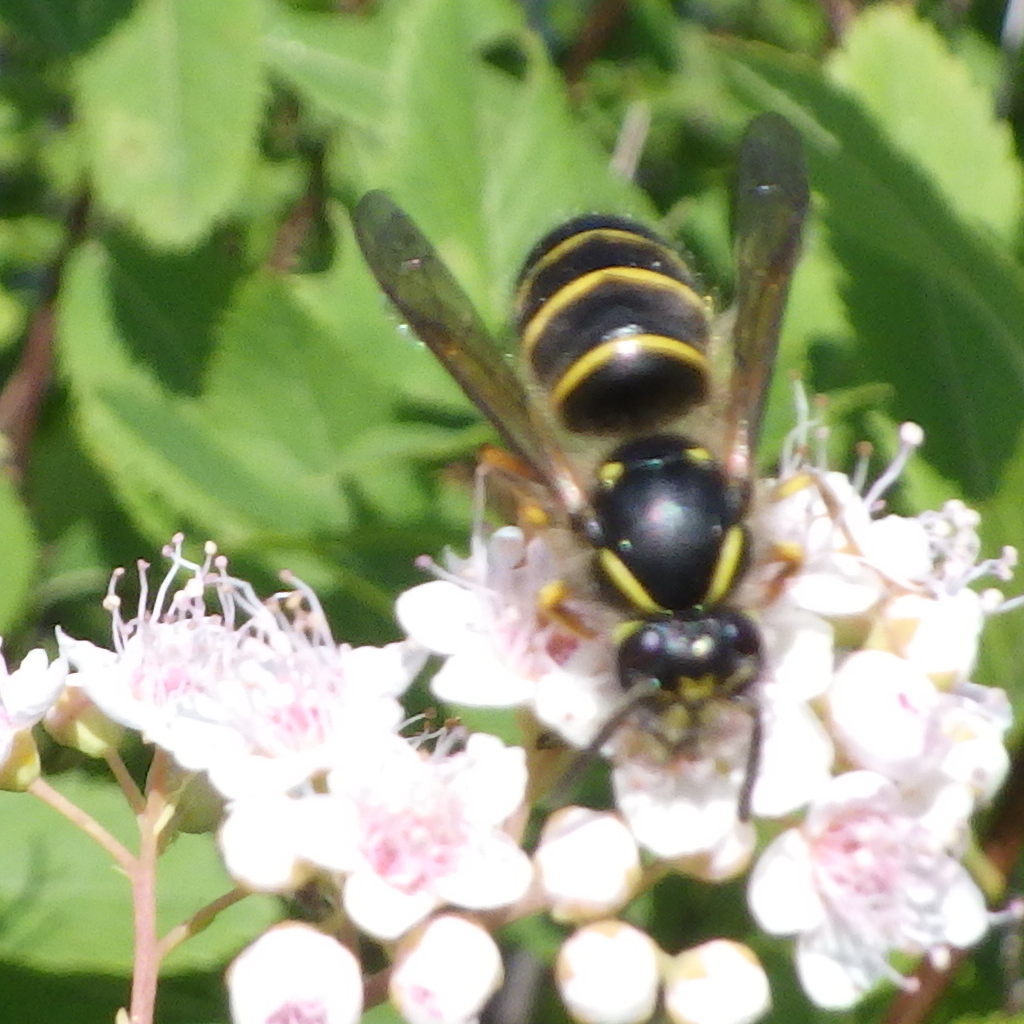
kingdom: Animalia
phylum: Arthropoda
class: Insecta
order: Hymenoptera
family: Vespidae
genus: Dolichovespula
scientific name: Dolichovespula norvegicoides
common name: Northern aerial yellowjacket
